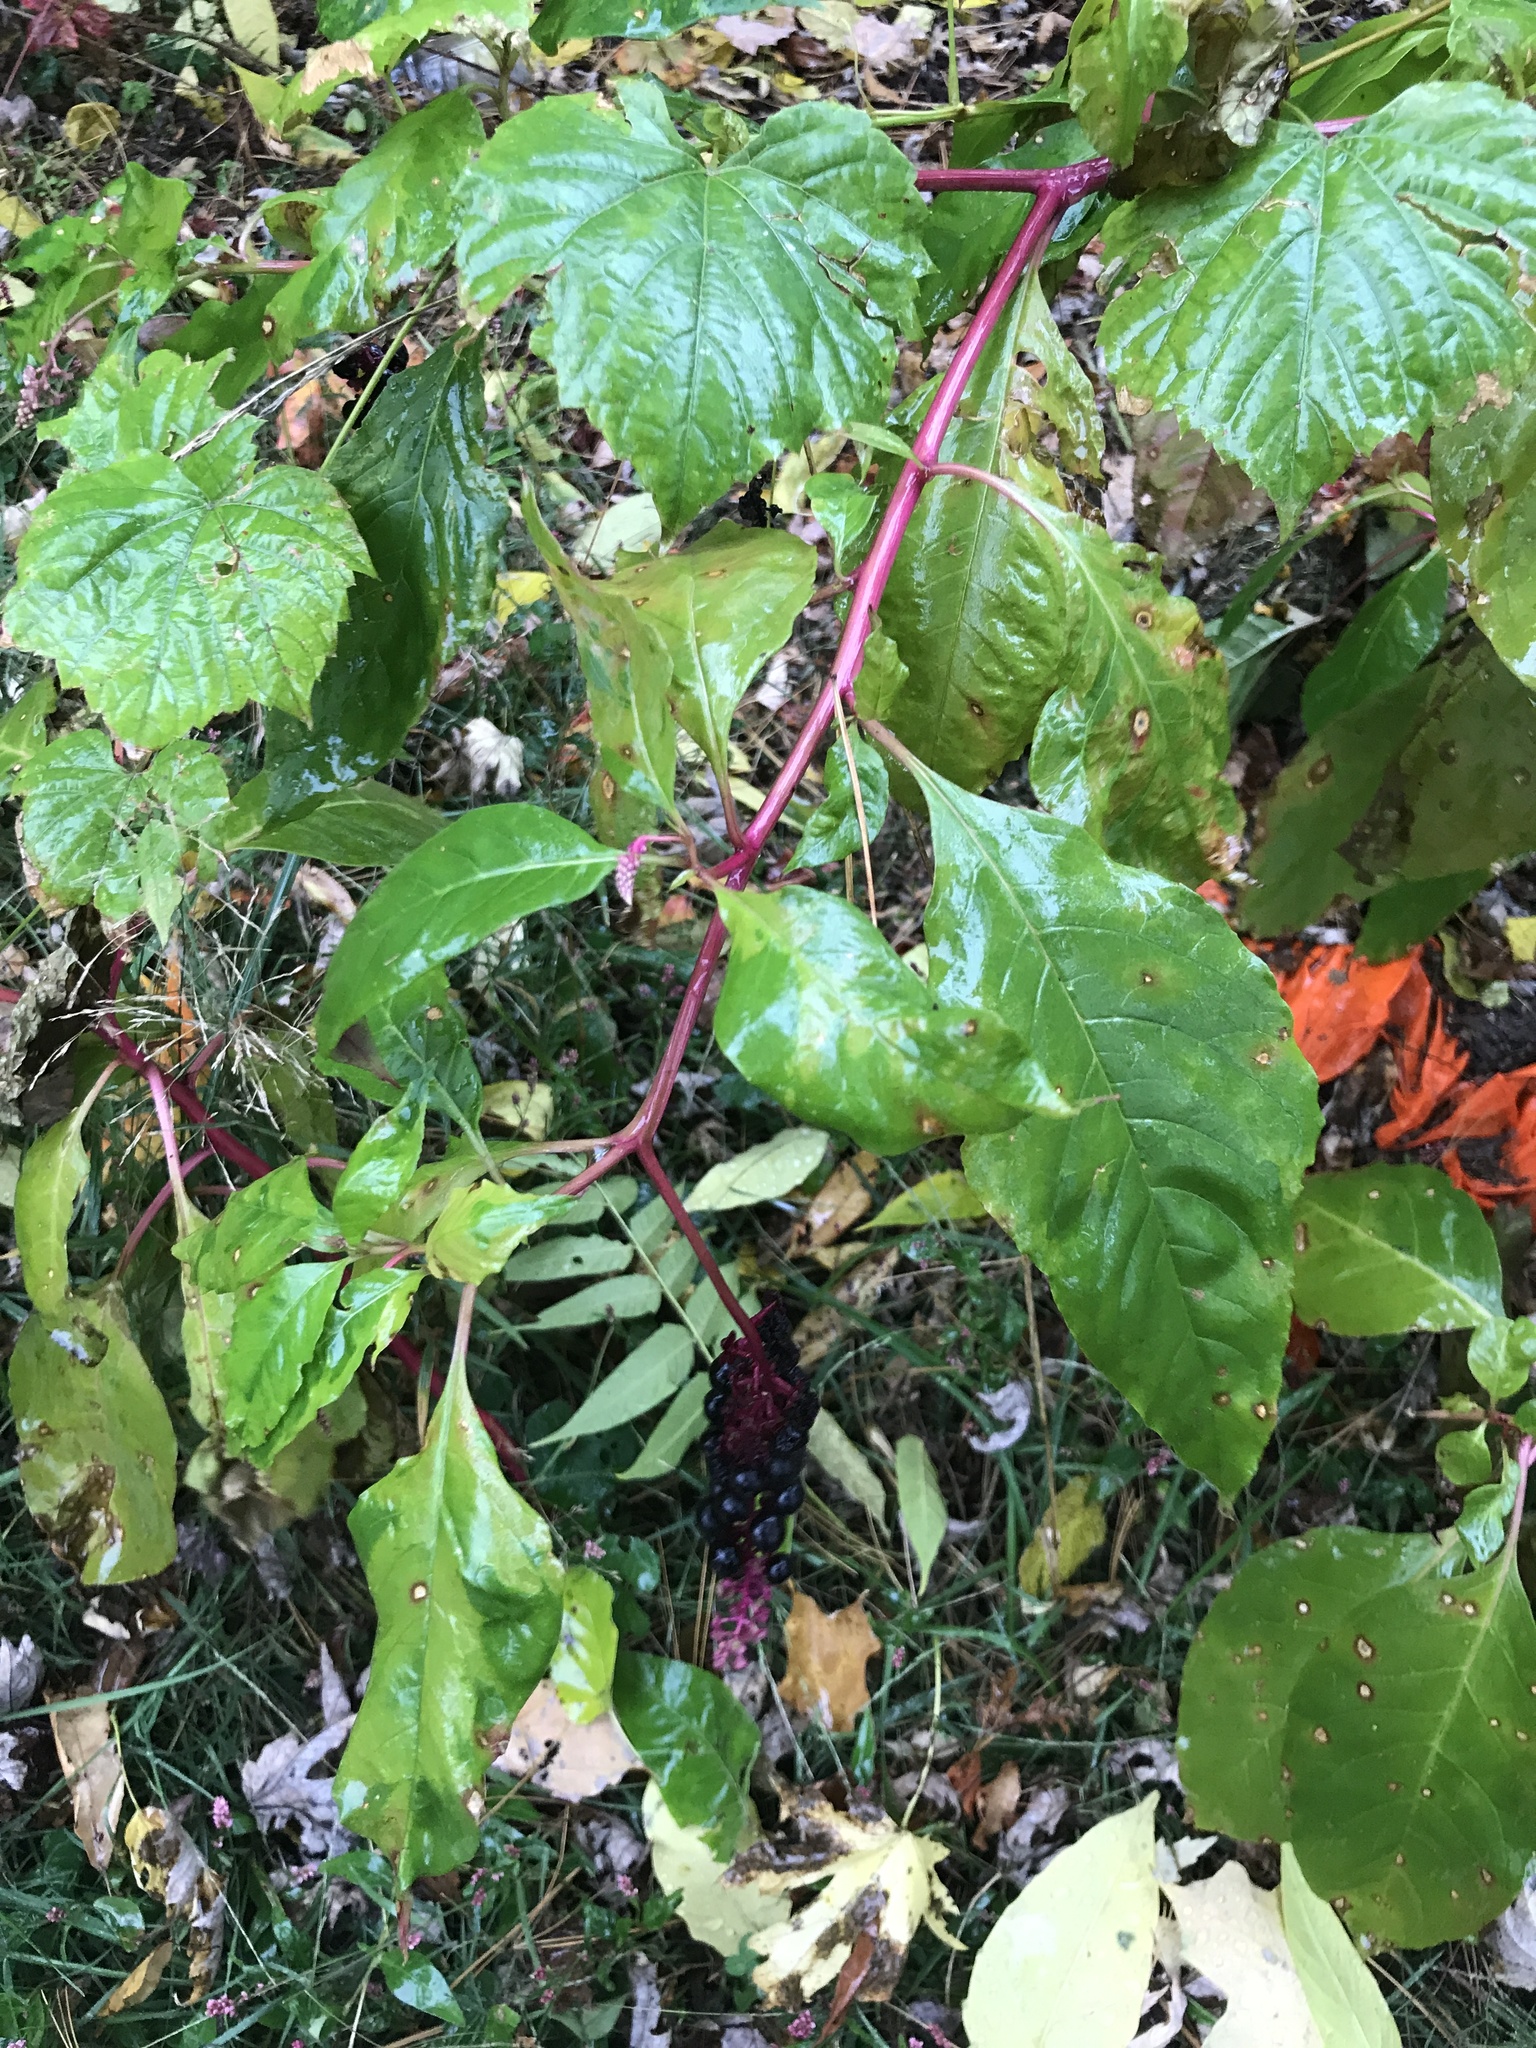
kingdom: Plantae
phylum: Tracheophyta
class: Magnoliopsida
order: Caryophyllales
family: Phytolaccaceae
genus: Phytolacca
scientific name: Phytolacca americana
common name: American pokeweed
